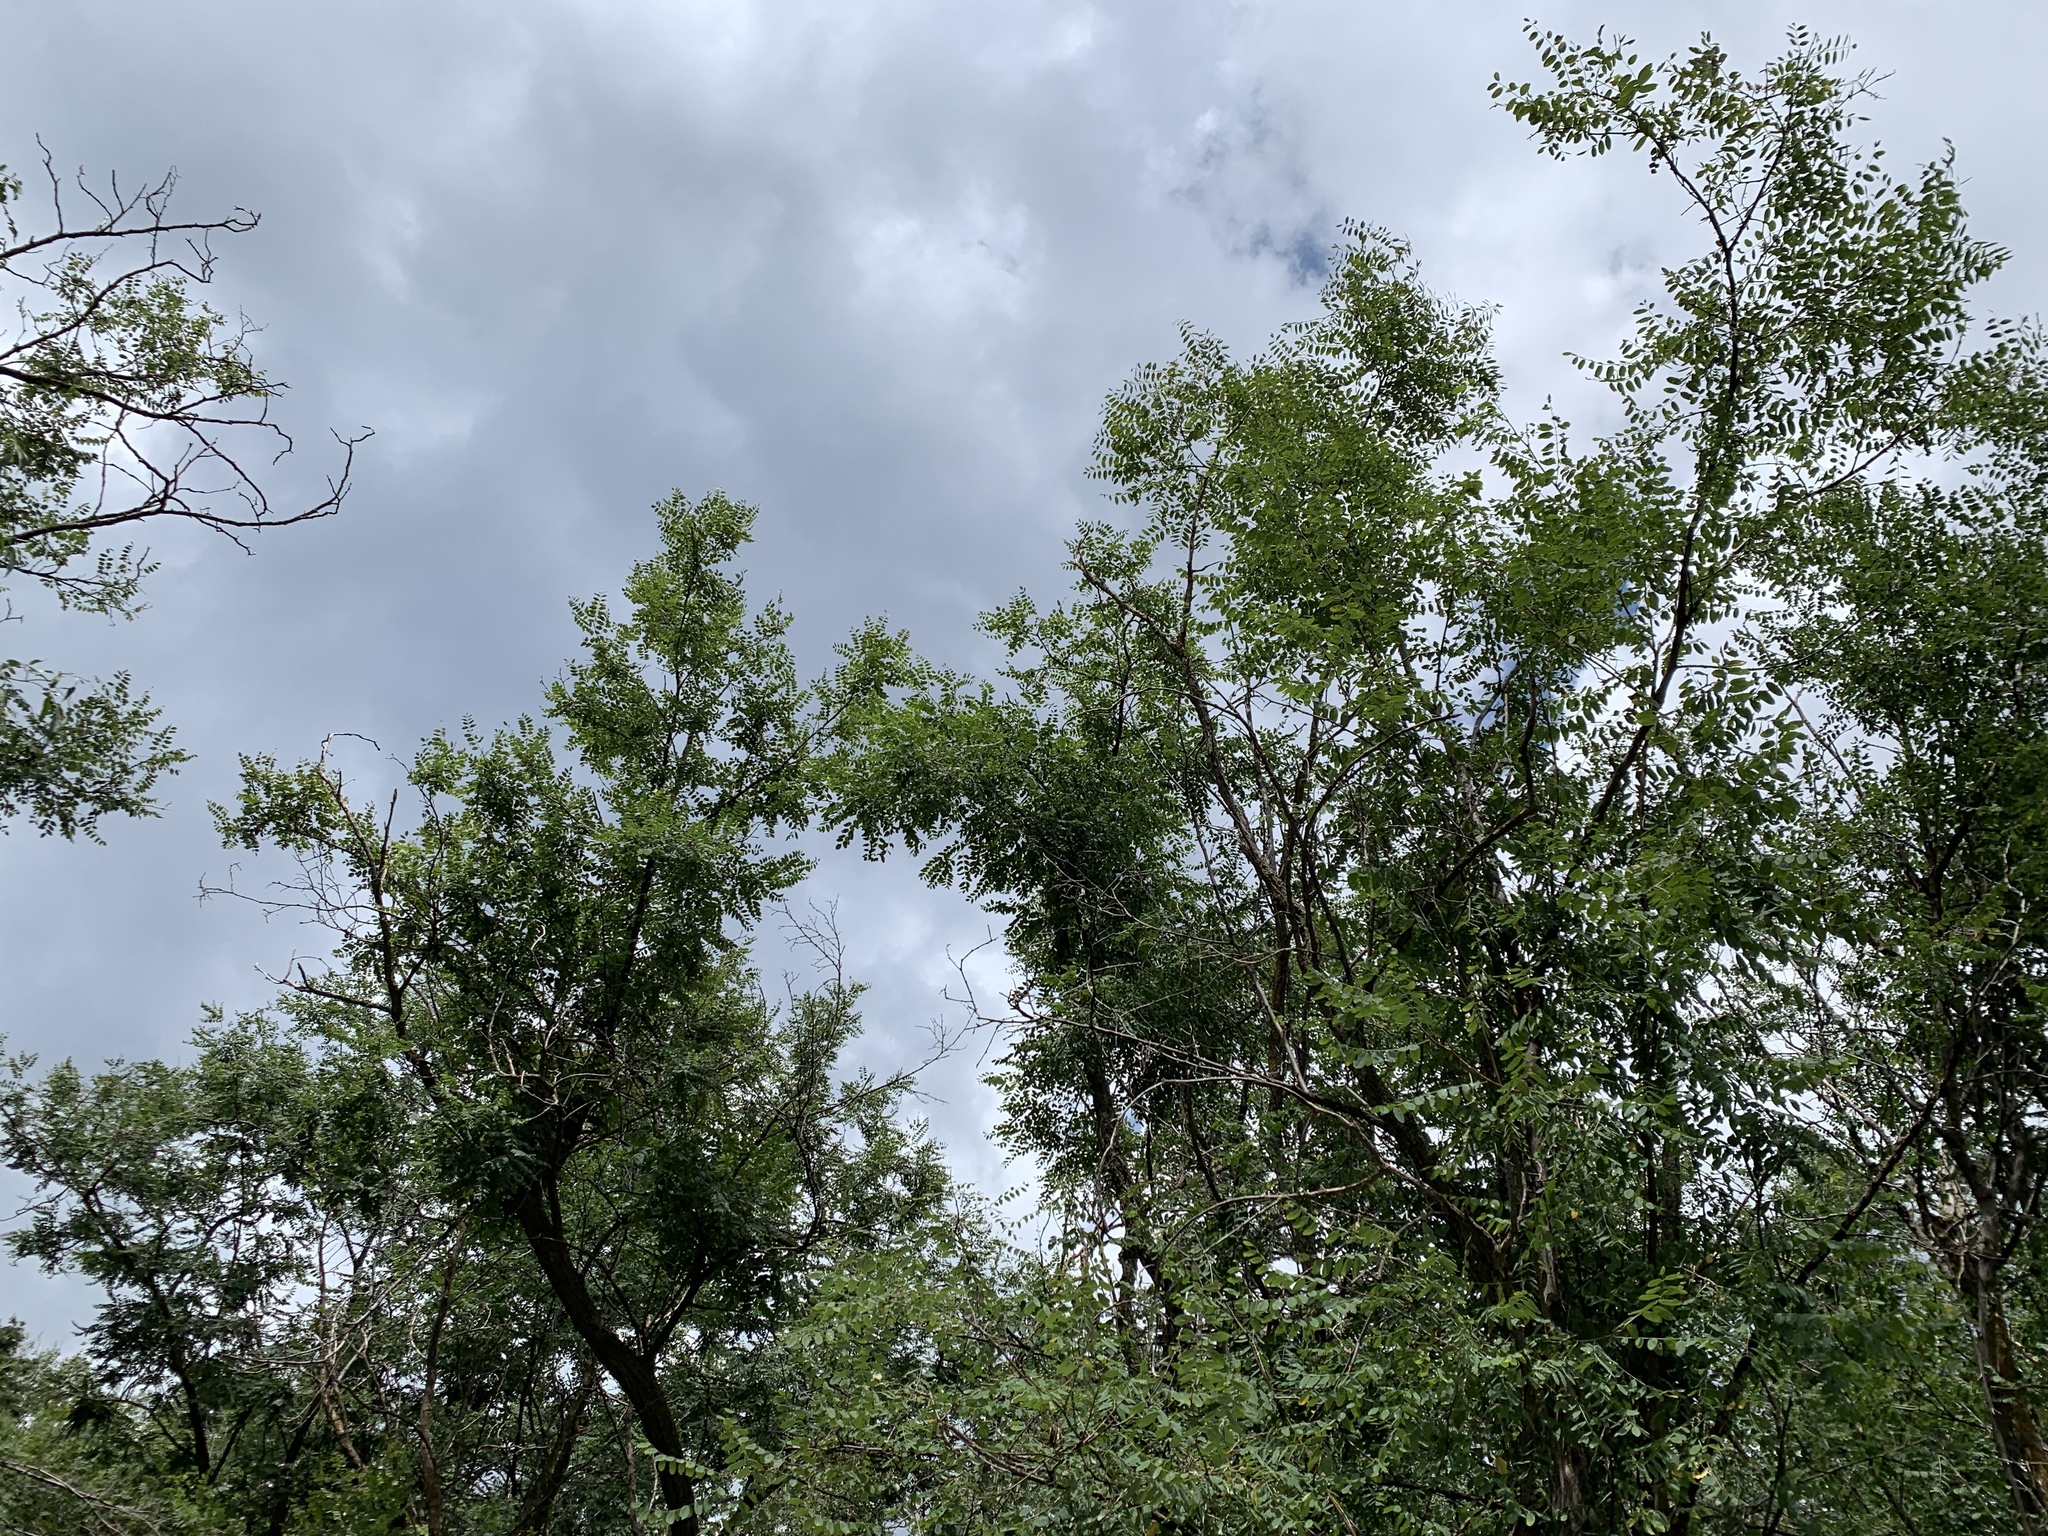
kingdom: Plantae
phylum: Tracheophyta
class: Magnoliopsida
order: Fabales
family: Fabaceae
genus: Robinia
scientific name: Robinia neomexicana
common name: New mexico locust
